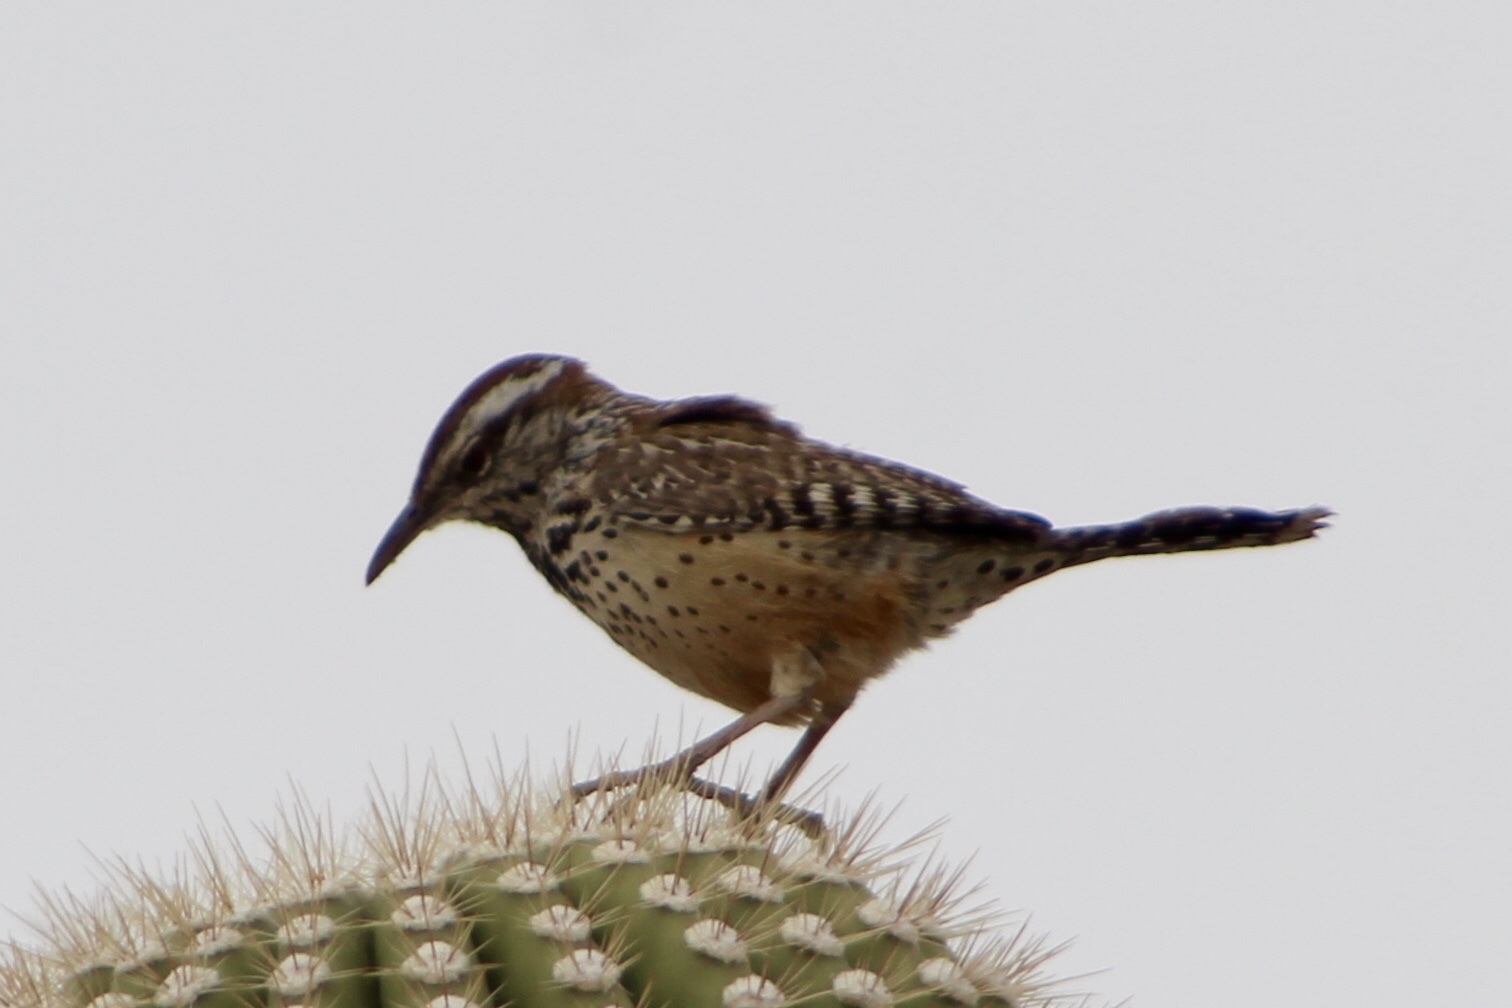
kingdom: Animalia
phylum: Chordata
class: Aves
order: Passeriformes
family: Troglodytidae
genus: Campylorhynchus
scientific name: Campylorhynchus brunneicapillus
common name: Cactus wren
